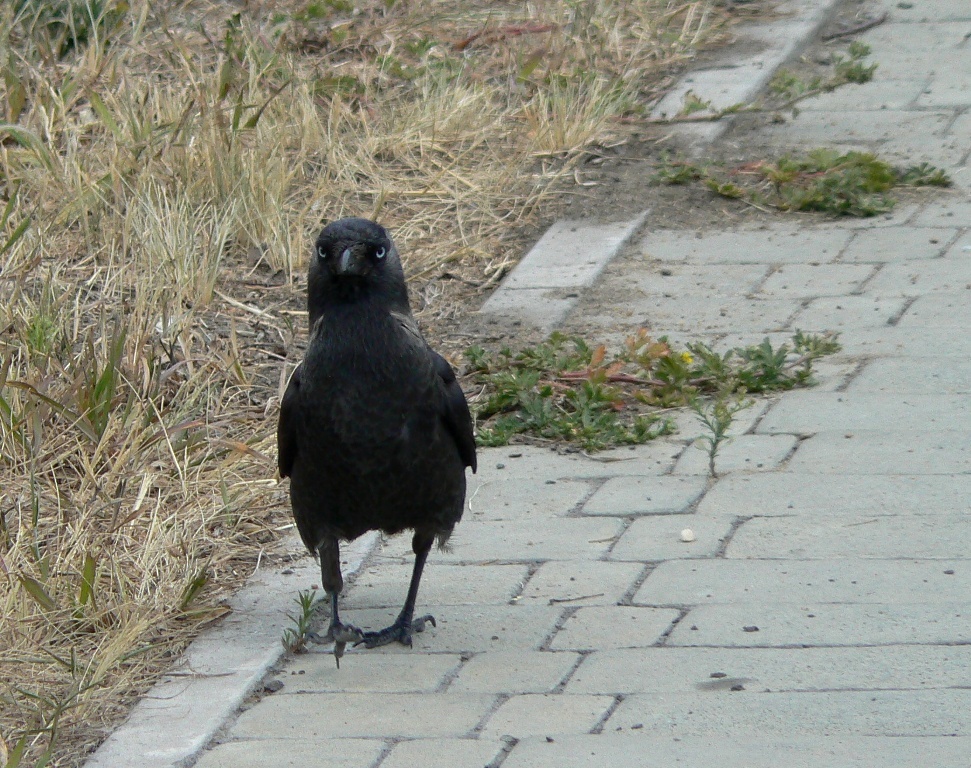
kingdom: Animalia
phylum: Chordata
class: Aves
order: Passeriformes
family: Corvidae
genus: Coloeus
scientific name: Coloeus monedula
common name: Western jackdaw
